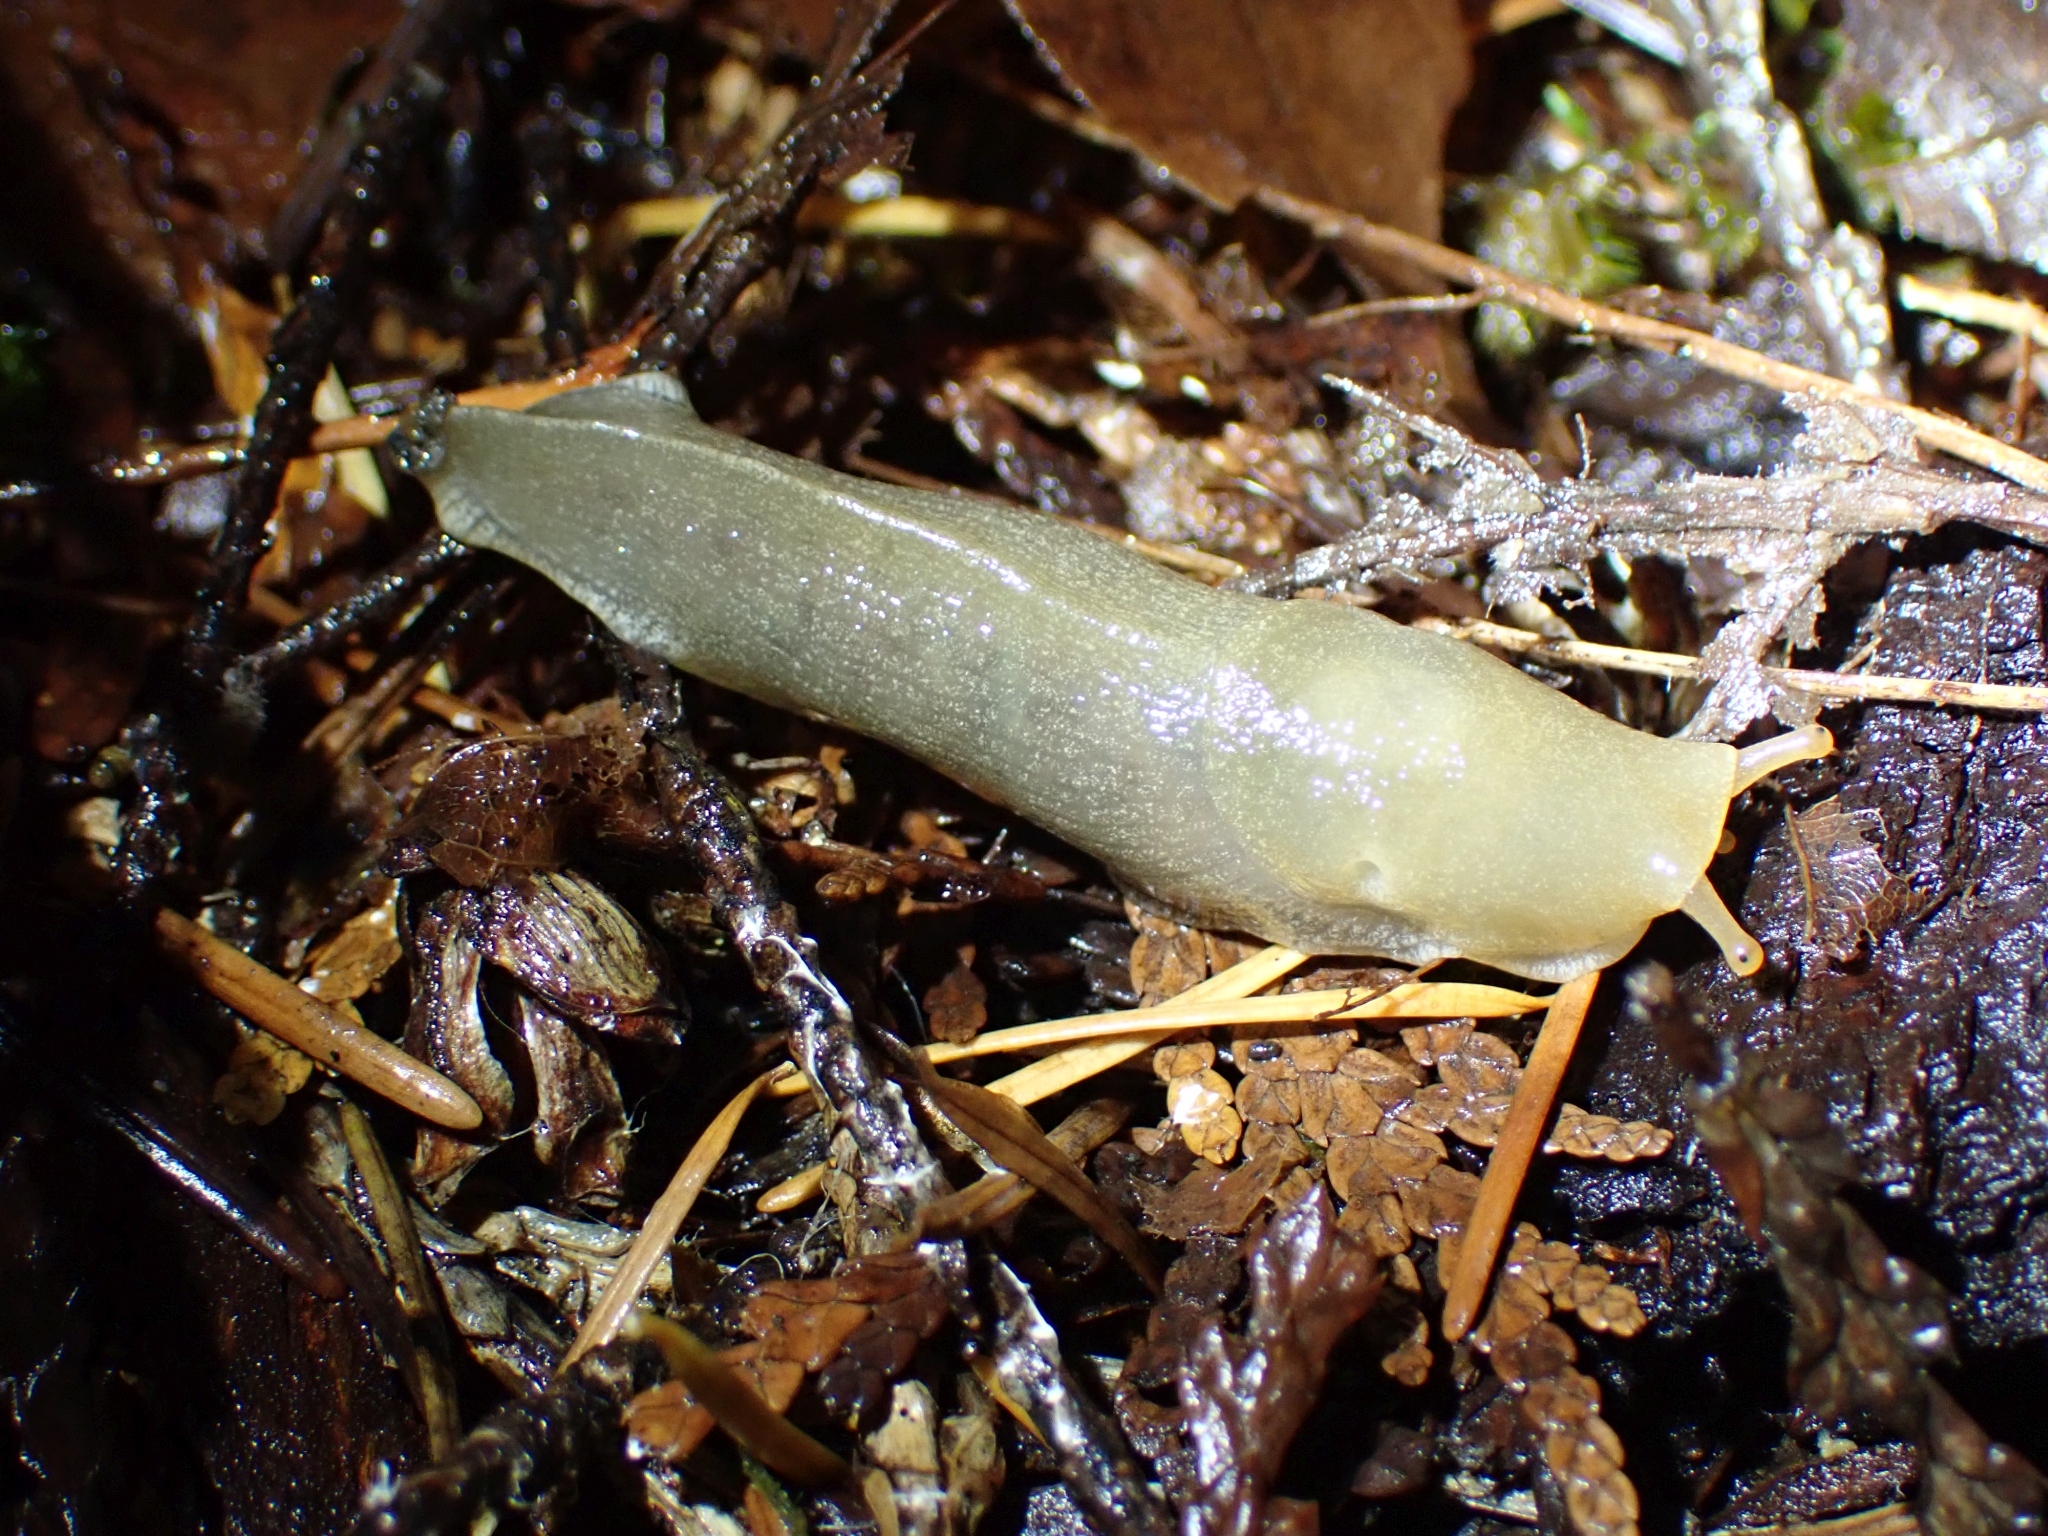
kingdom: Animalia
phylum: Mollusca
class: Gastropoda
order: Stylommatophora
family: Ariolimacidae
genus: Ariolimax
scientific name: Ariolimax columbianus
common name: Pacific banana slug
